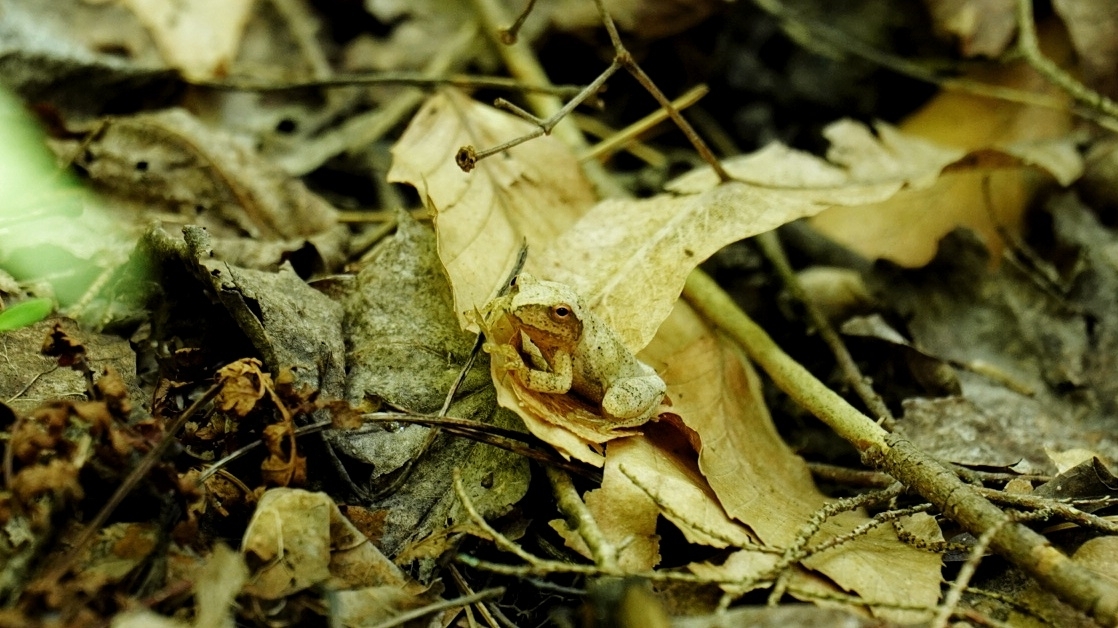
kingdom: Animalia
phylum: Chordata
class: Amphibia
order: Anura
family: Hylidae
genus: Pseudacris
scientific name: Pseudacris crucifer
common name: Spring peeper
